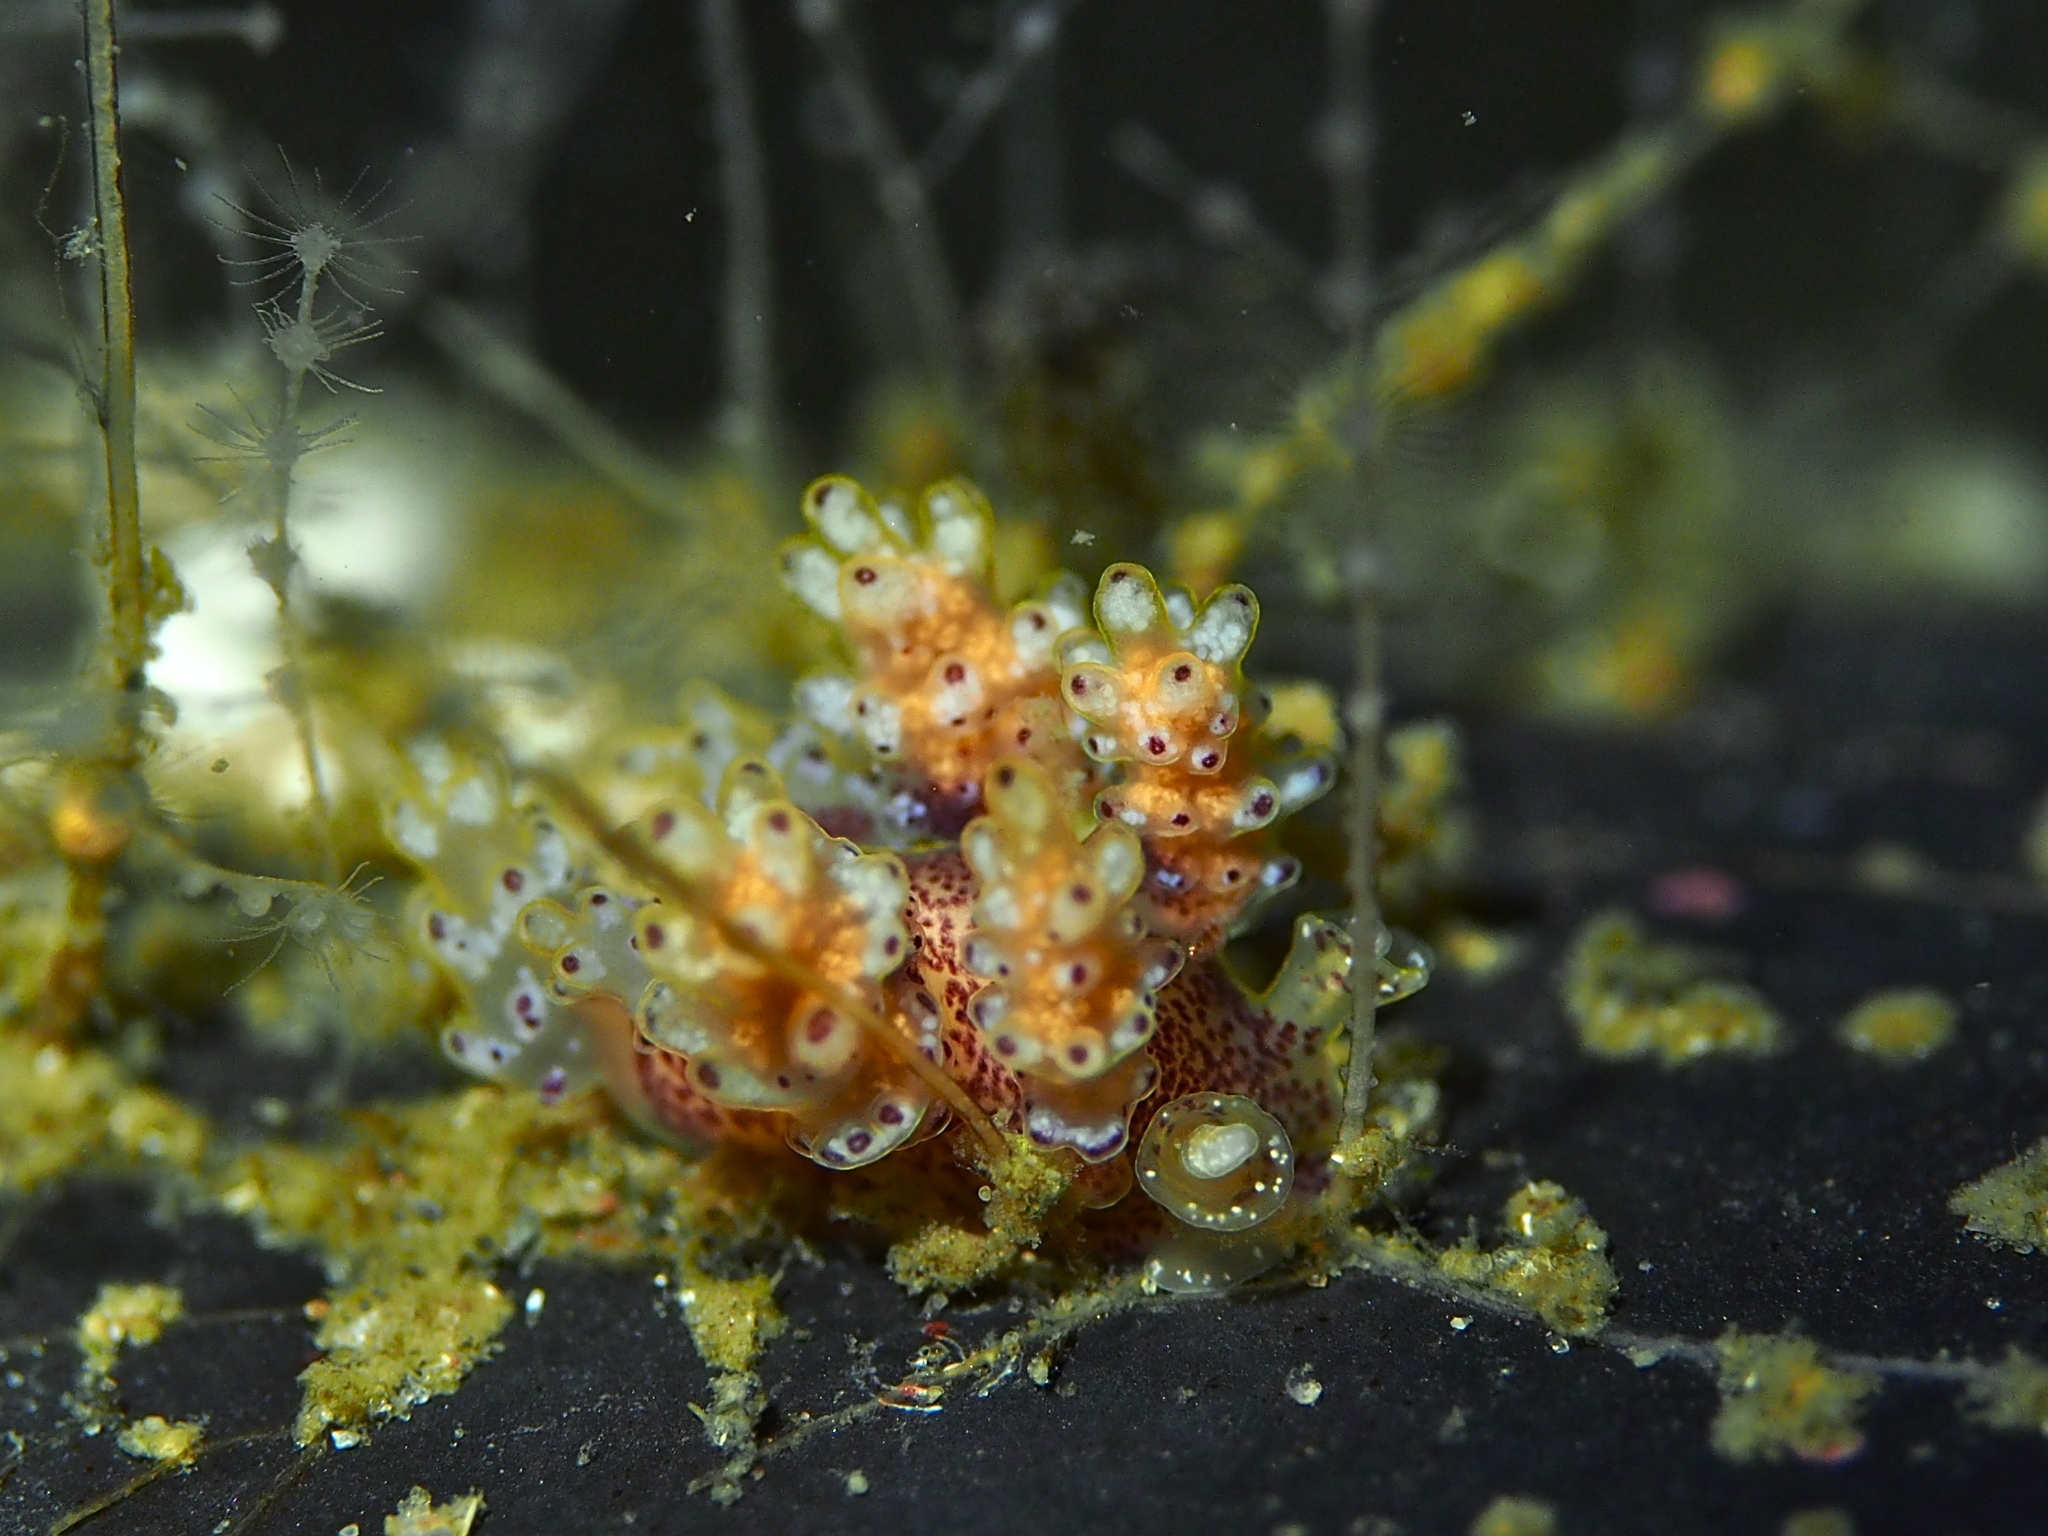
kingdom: Animalia
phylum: Mollusca
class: Gastropoda
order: Nudibranchia
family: Dotidae
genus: Doto
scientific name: Doto maculata
